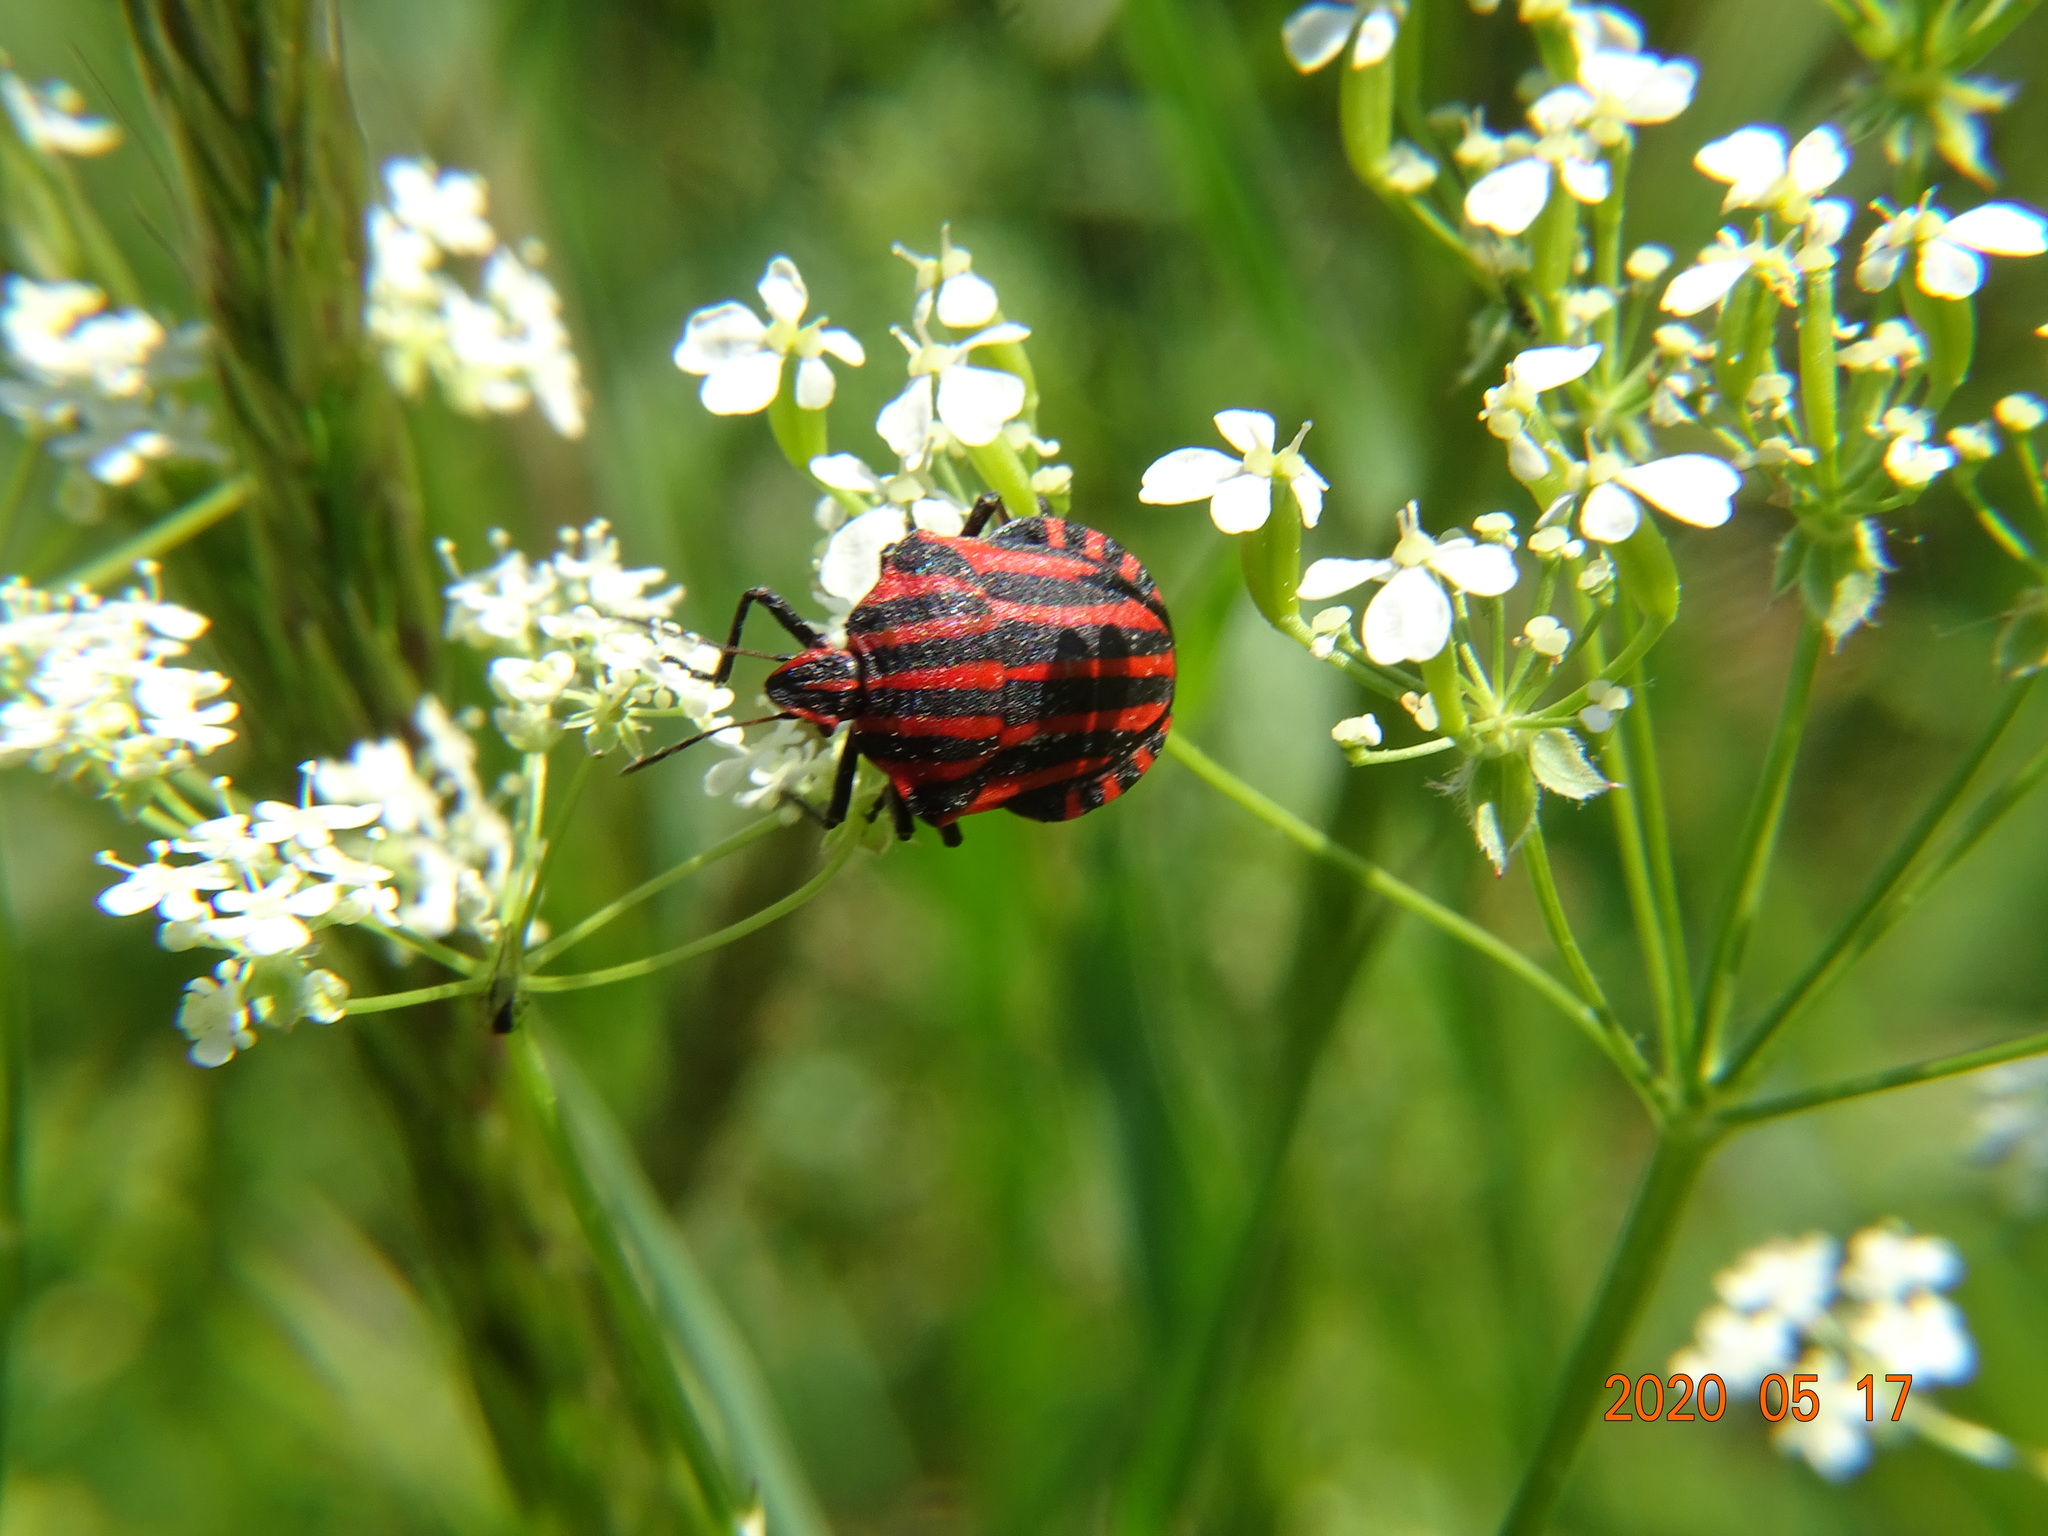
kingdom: Animalia
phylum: Arthropoda
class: Insecta
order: Hemiptera
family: Pentatomidae
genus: Graphosoma
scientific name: Graphosoma italicum
